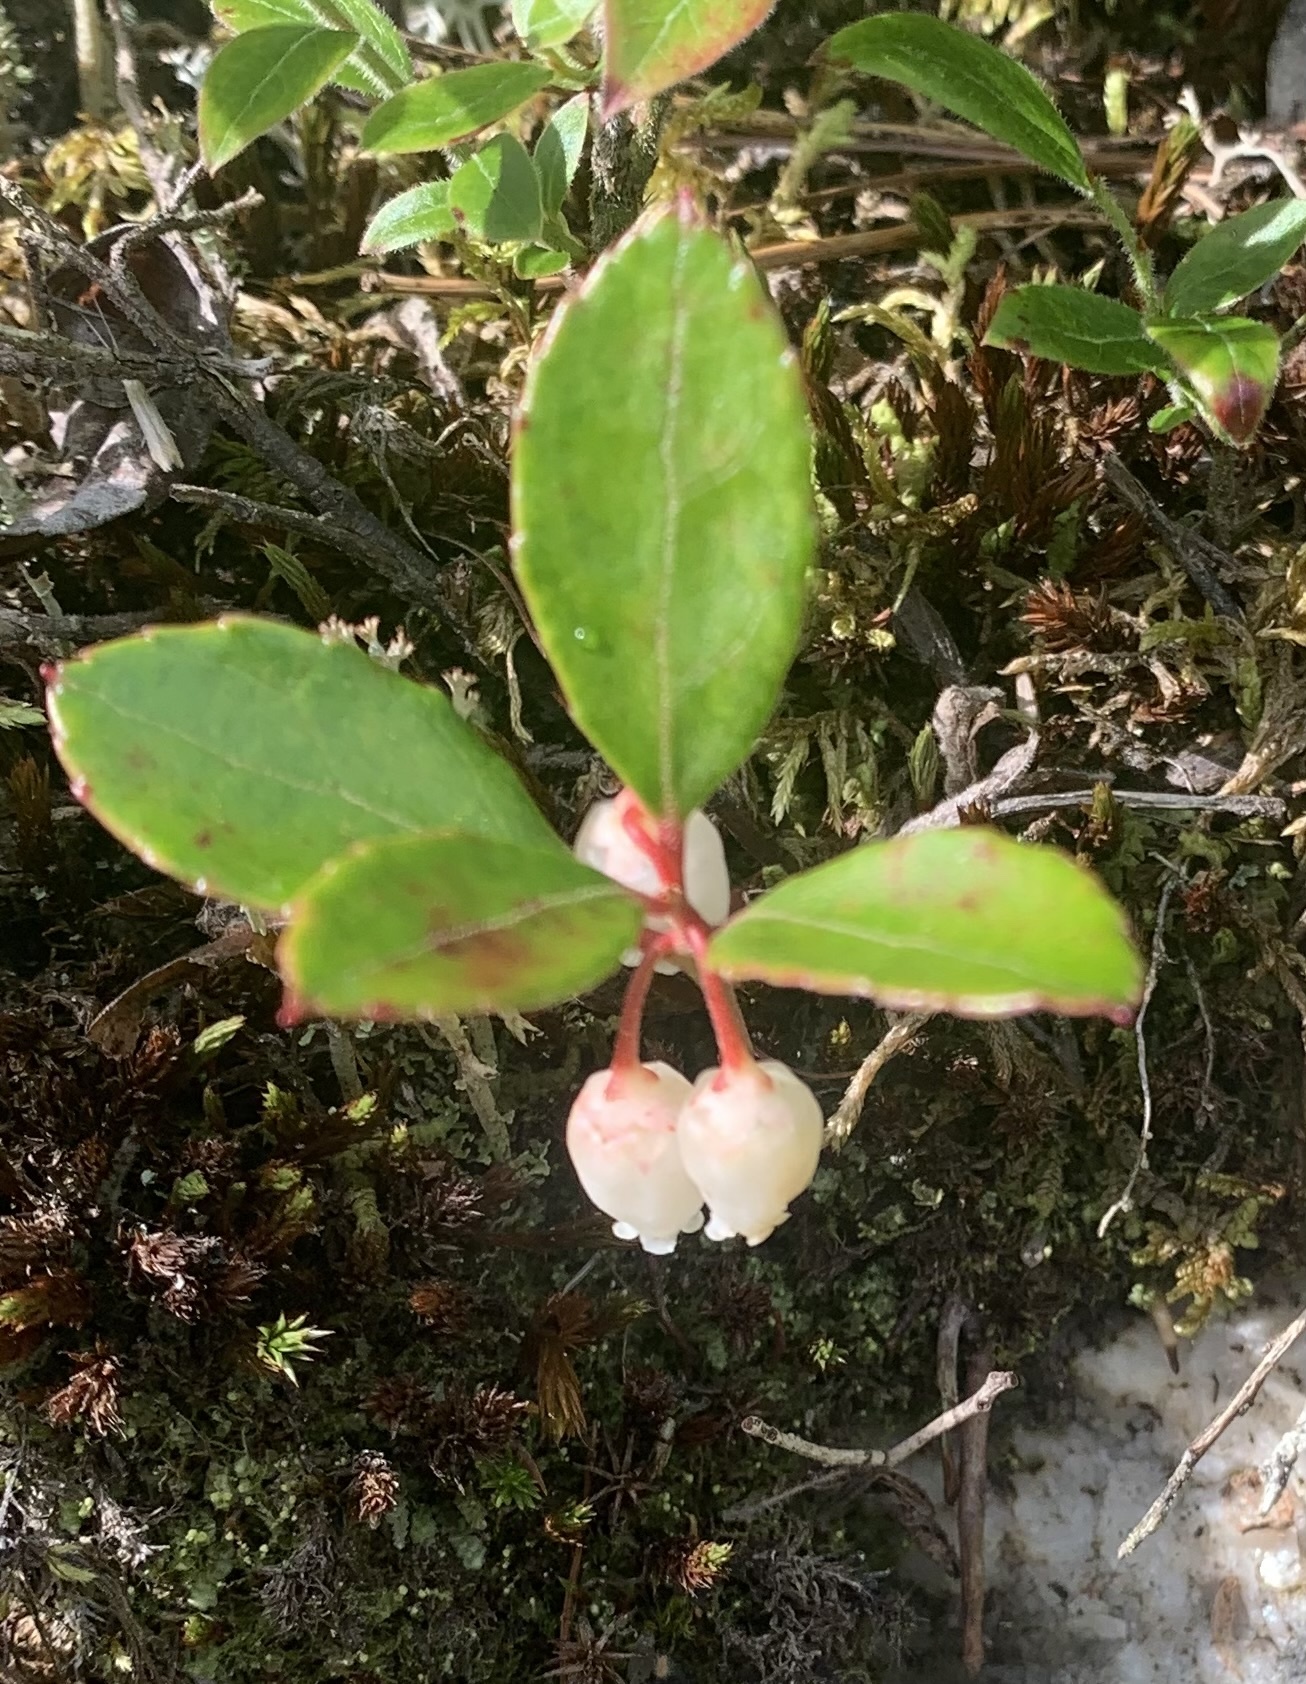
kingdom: Plantae
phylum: Tracheophyta
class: Magnoliopsida
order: Ericales
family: Ericaceae
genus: Gaultheria
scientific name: Gaultheria procumbens
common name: Checkerberry
